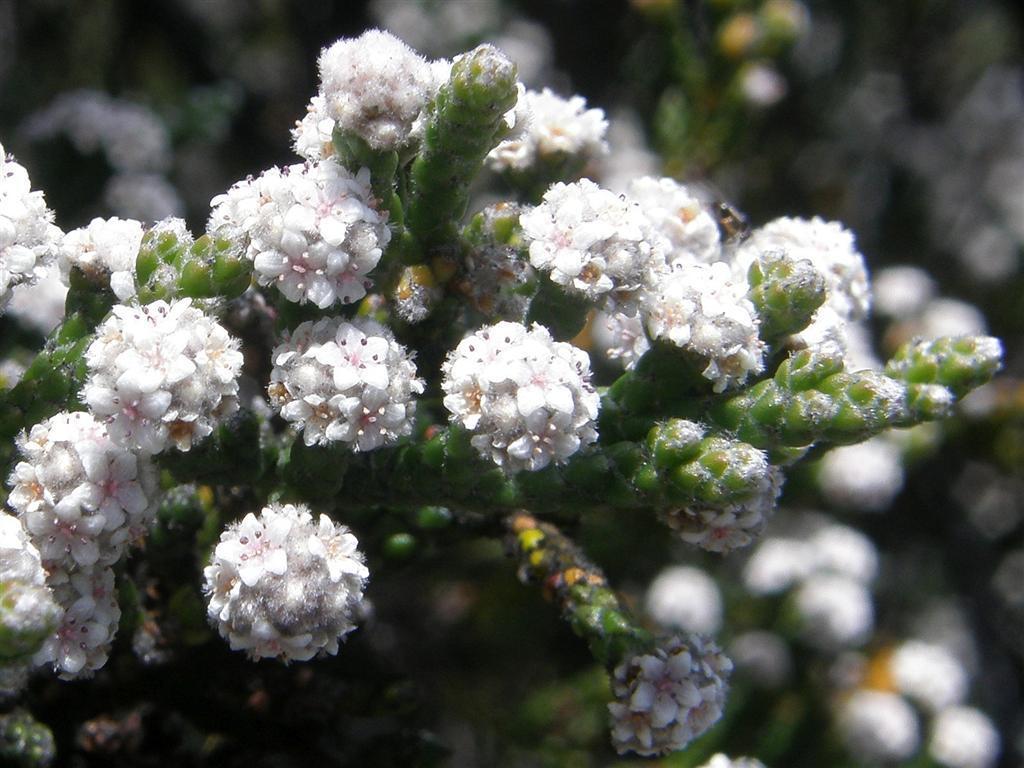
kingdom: Plantae
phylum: Tracheophyta
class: Magnoliopsida
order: Bruniales
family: Bruniaceae
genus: Brunia
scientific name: Brunia microphylla
